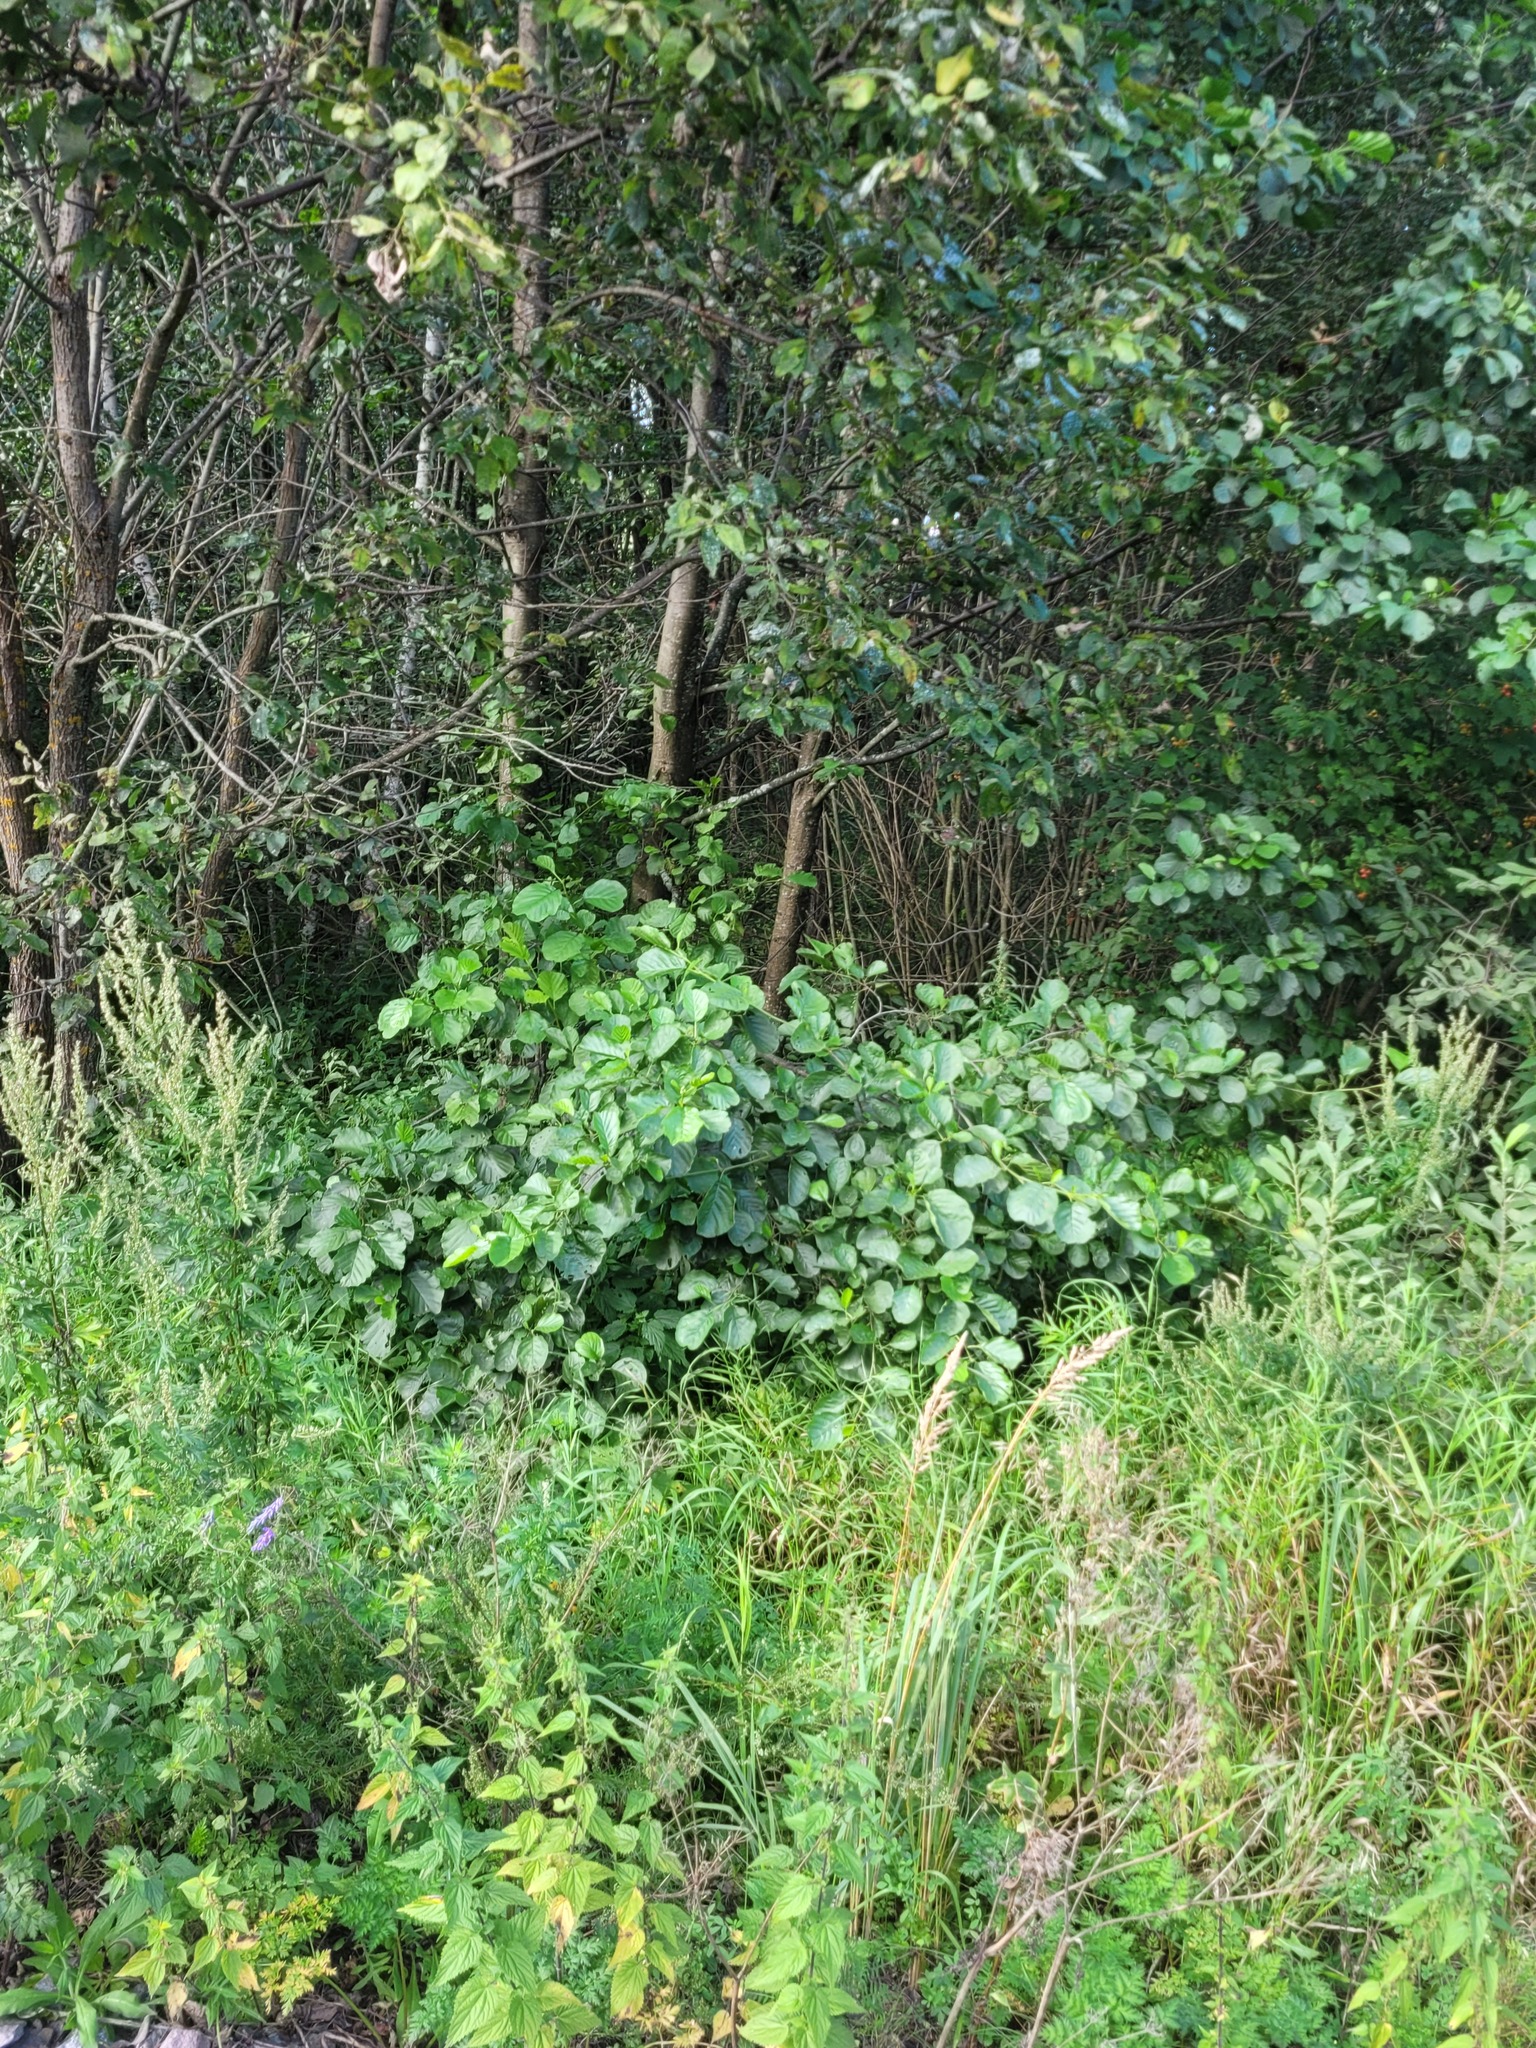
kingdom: Plantae
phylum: Tracheophyta
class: Magnoliopsida
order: Fagales
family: Betulaceae
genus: Alnus
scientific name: Alnus glutinosa
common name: Black alder
